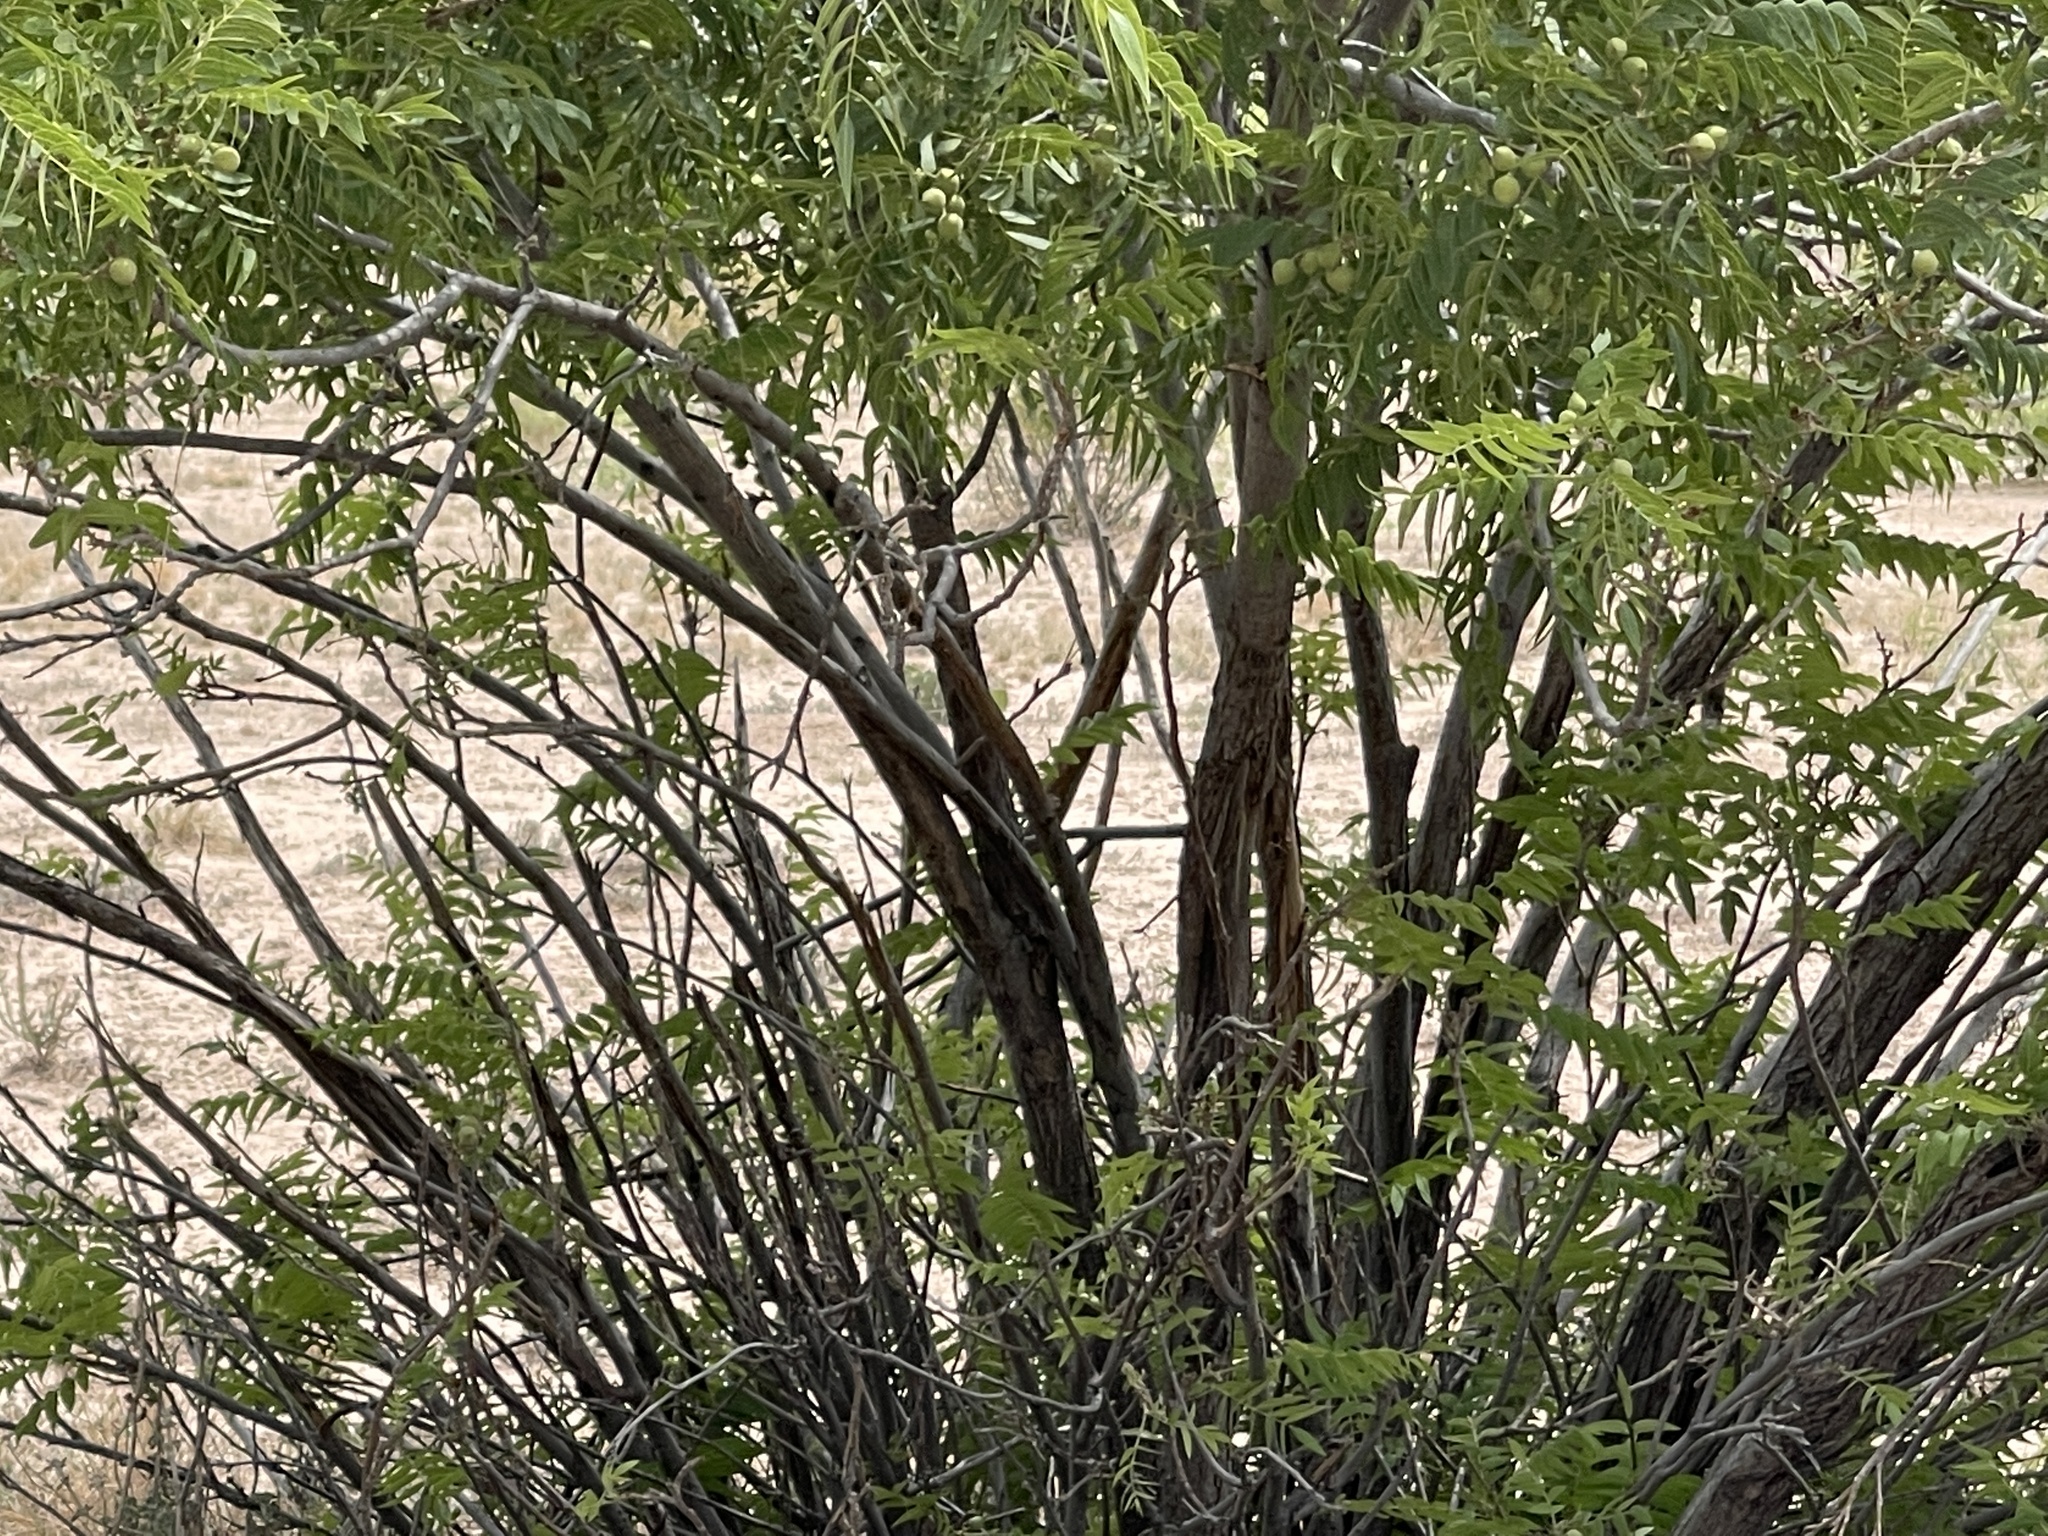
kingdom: Plantae
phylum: Tracheophyta
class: Magnoliopsida
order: Fagales
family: Juglandaceae
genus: Juglans
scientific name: Juglans microcarpa
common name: Texas walnut
